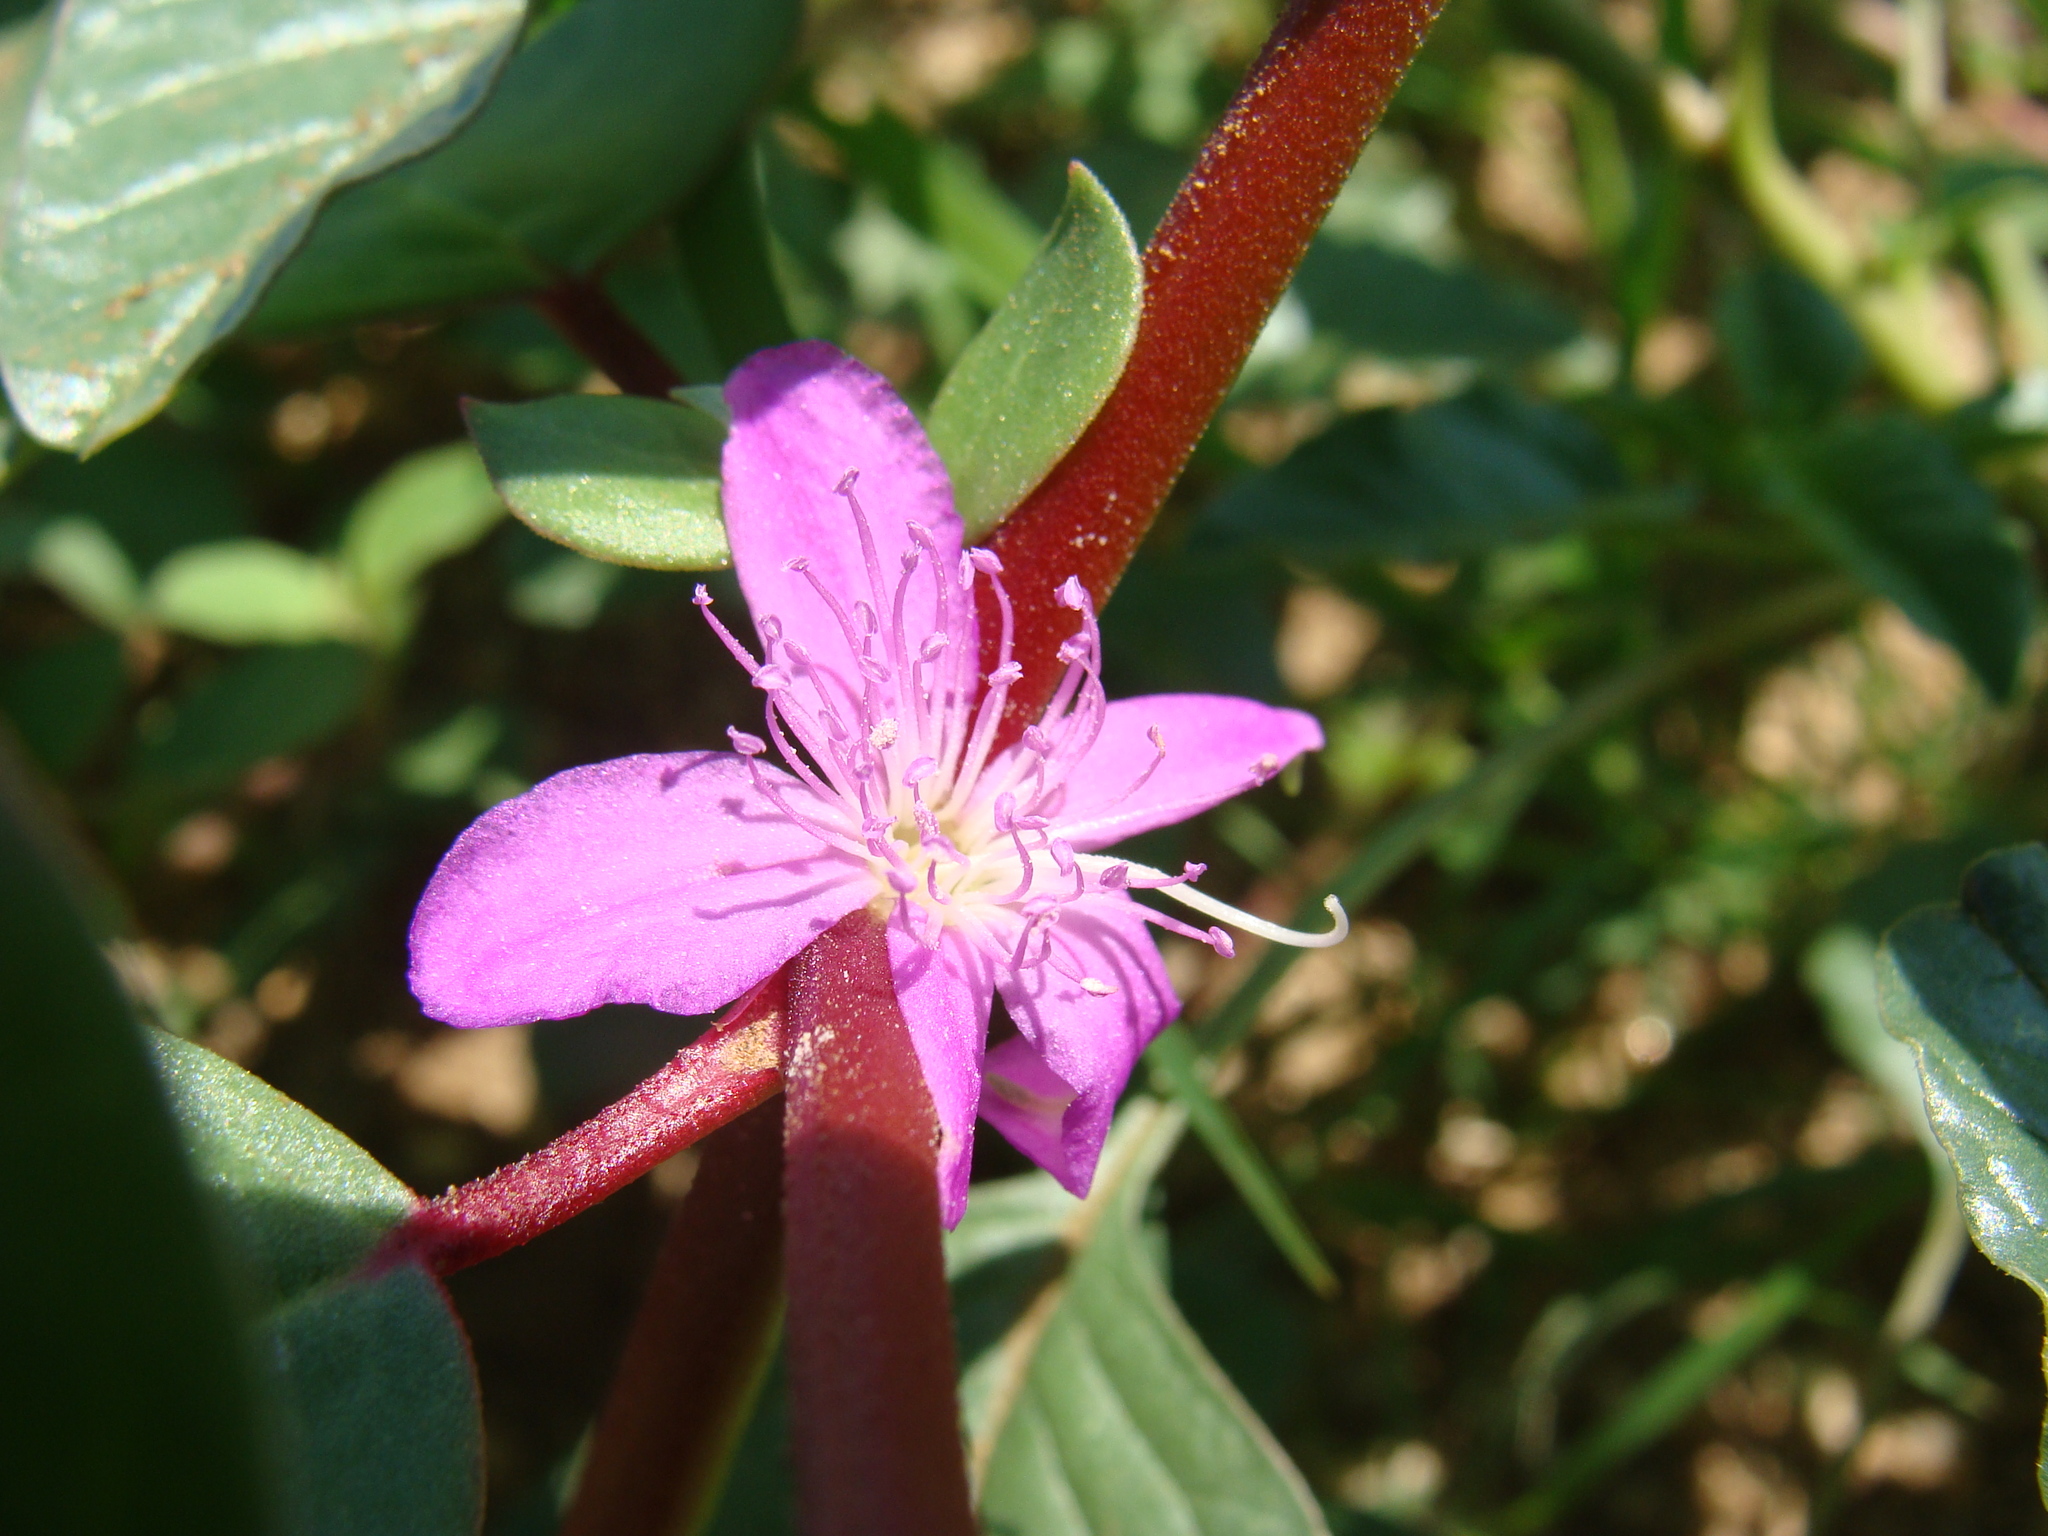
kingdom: Plantae
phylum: Tracheophyta
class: Magnoliopsida
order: Caryophyllales
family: Aizoaceae
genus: Trianthema
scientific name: Trianthema portulacastrum
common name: Desert horsepurslane
